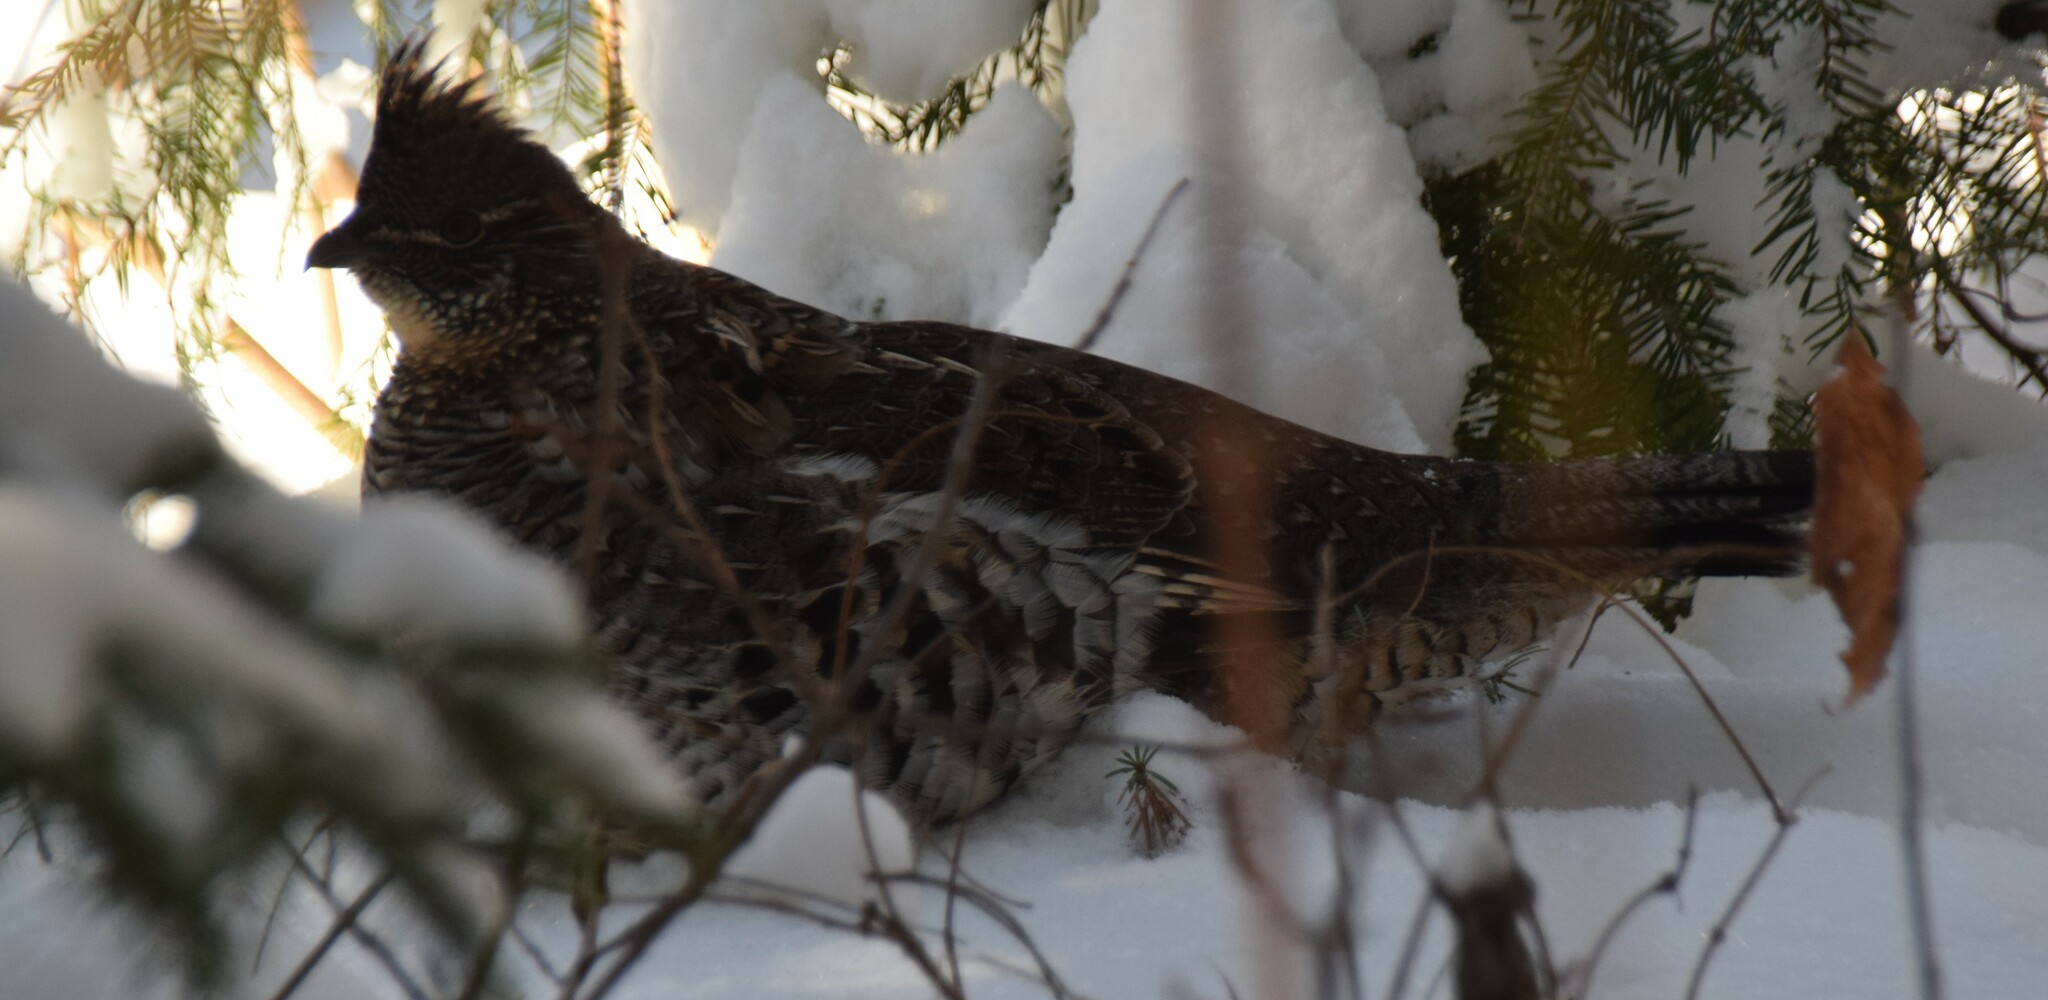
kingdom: Animalia
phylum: Chordata
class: Aves
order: Galliformes
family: Phasianidae
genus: Bonasa
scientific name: Bonasa umbellus
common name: Ruffed grouse
